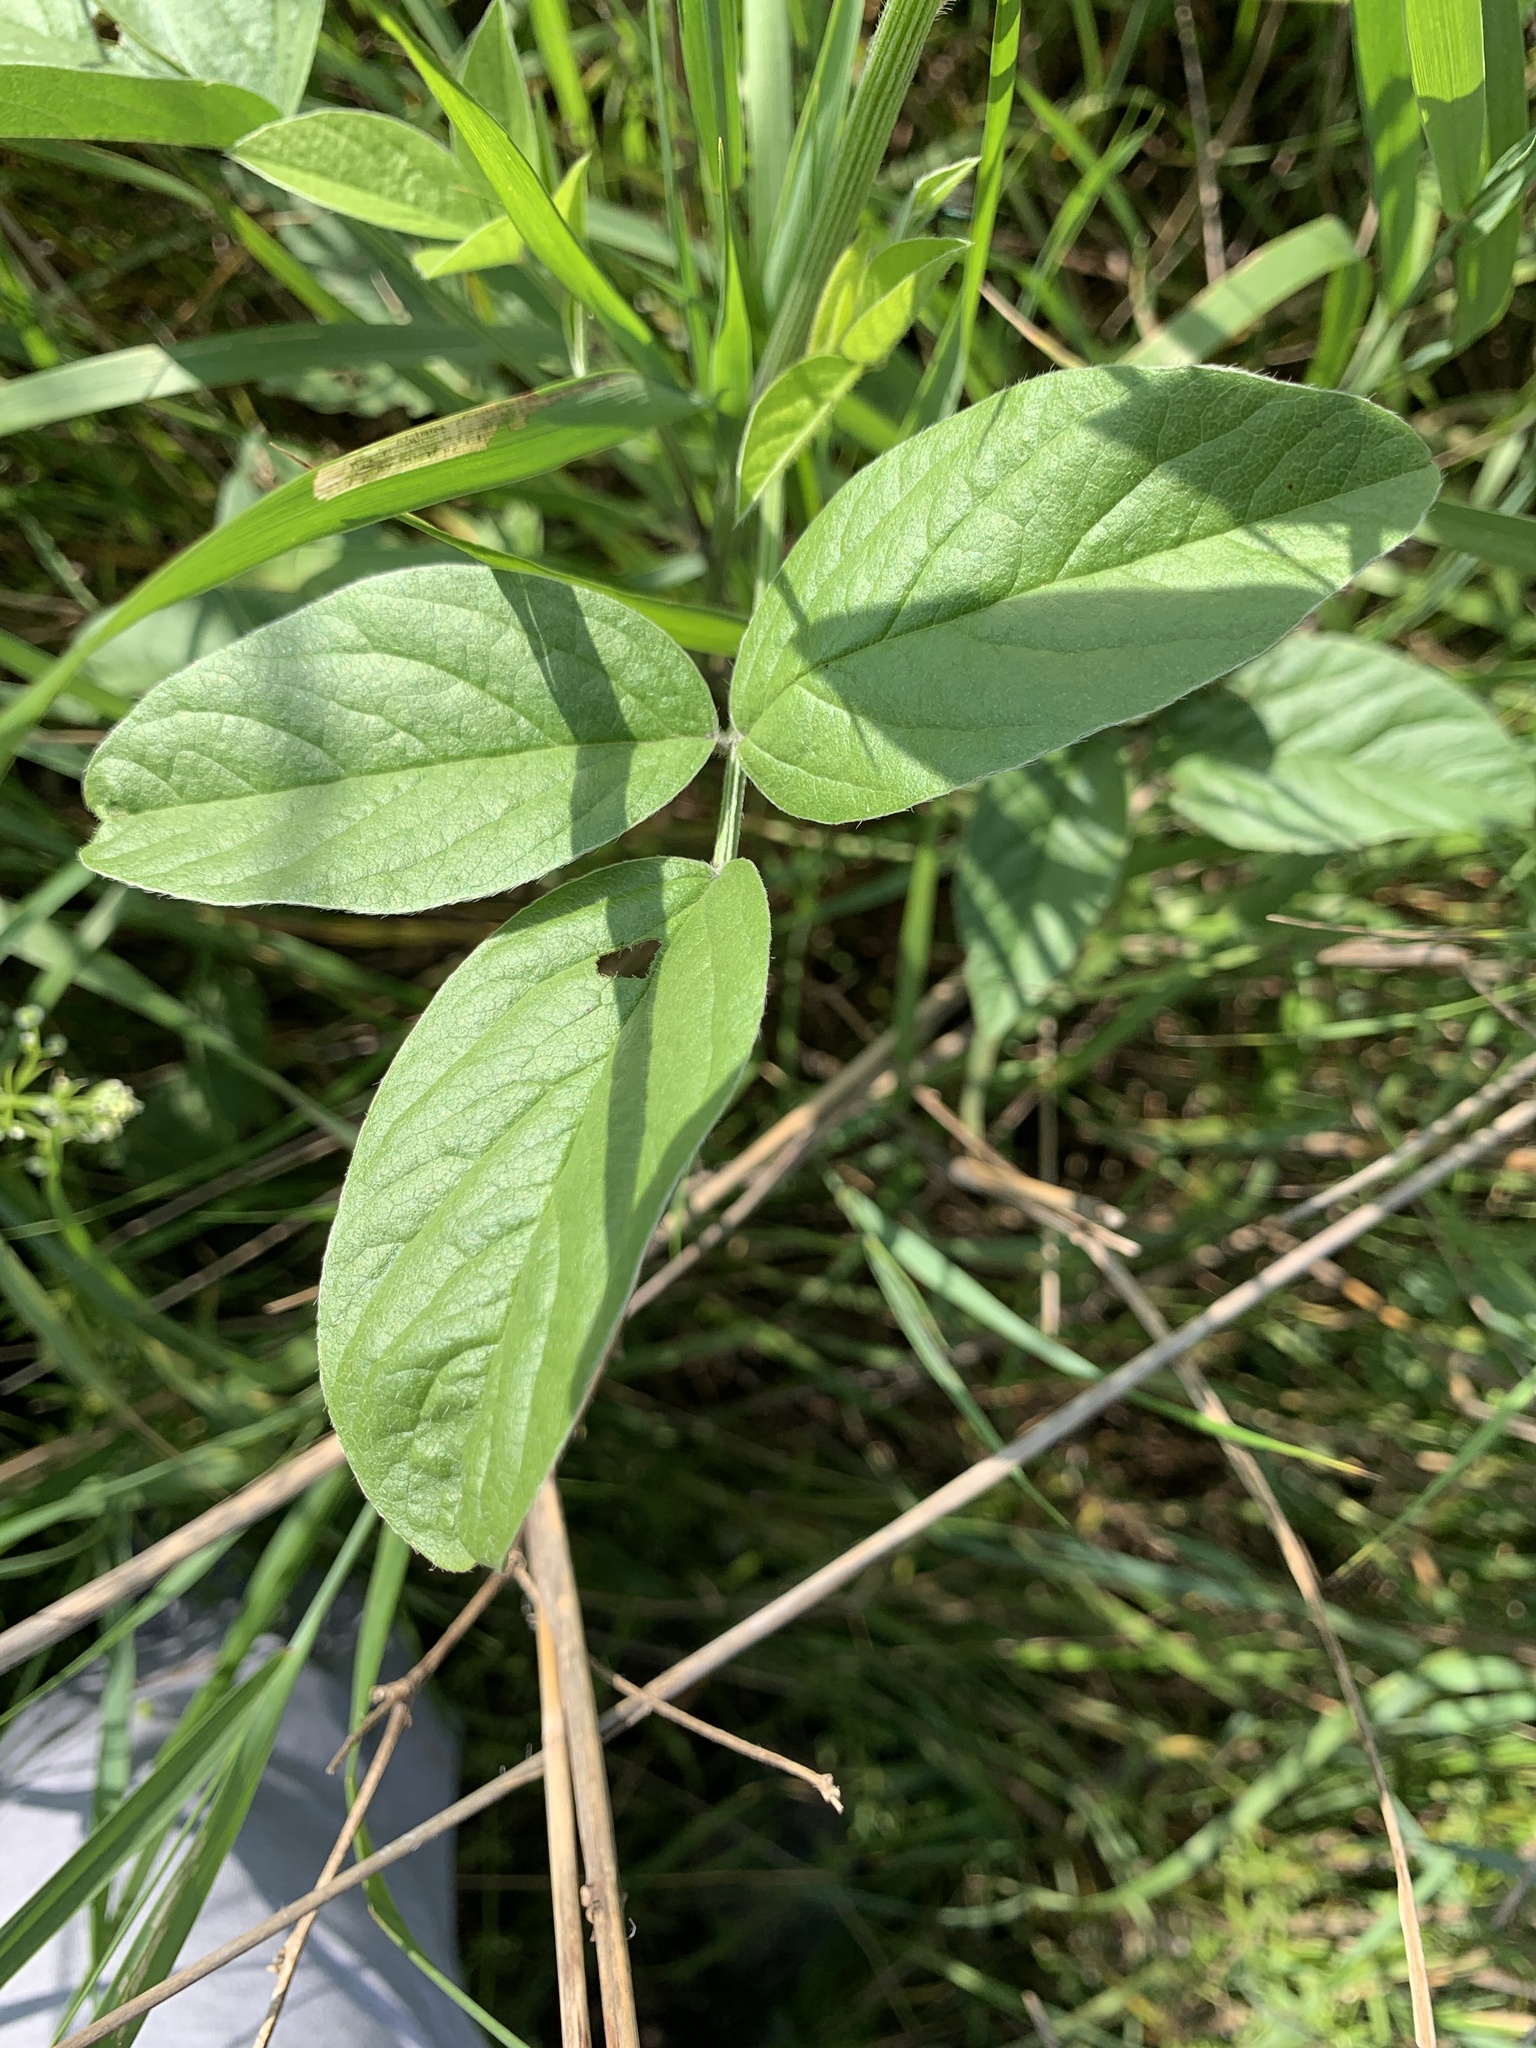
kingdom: Plantae
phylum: Tracheophyta
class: Magnoliopsida
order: Fabales
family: Fabaceae
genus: Bituminaria
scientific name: Bituminaria bituminosa
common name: Arabian pea
